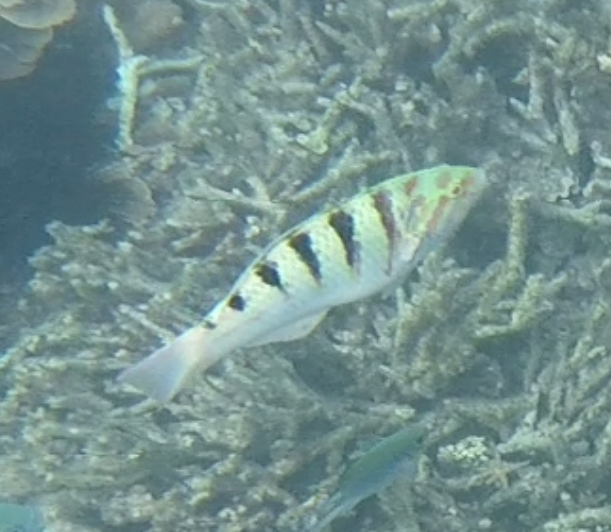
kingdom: Animalia
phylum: Chordata
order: Perciformes
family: Labridae
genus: Thalassoma
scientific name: Thalassoma hardwicke
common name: Sixbar wrasse
